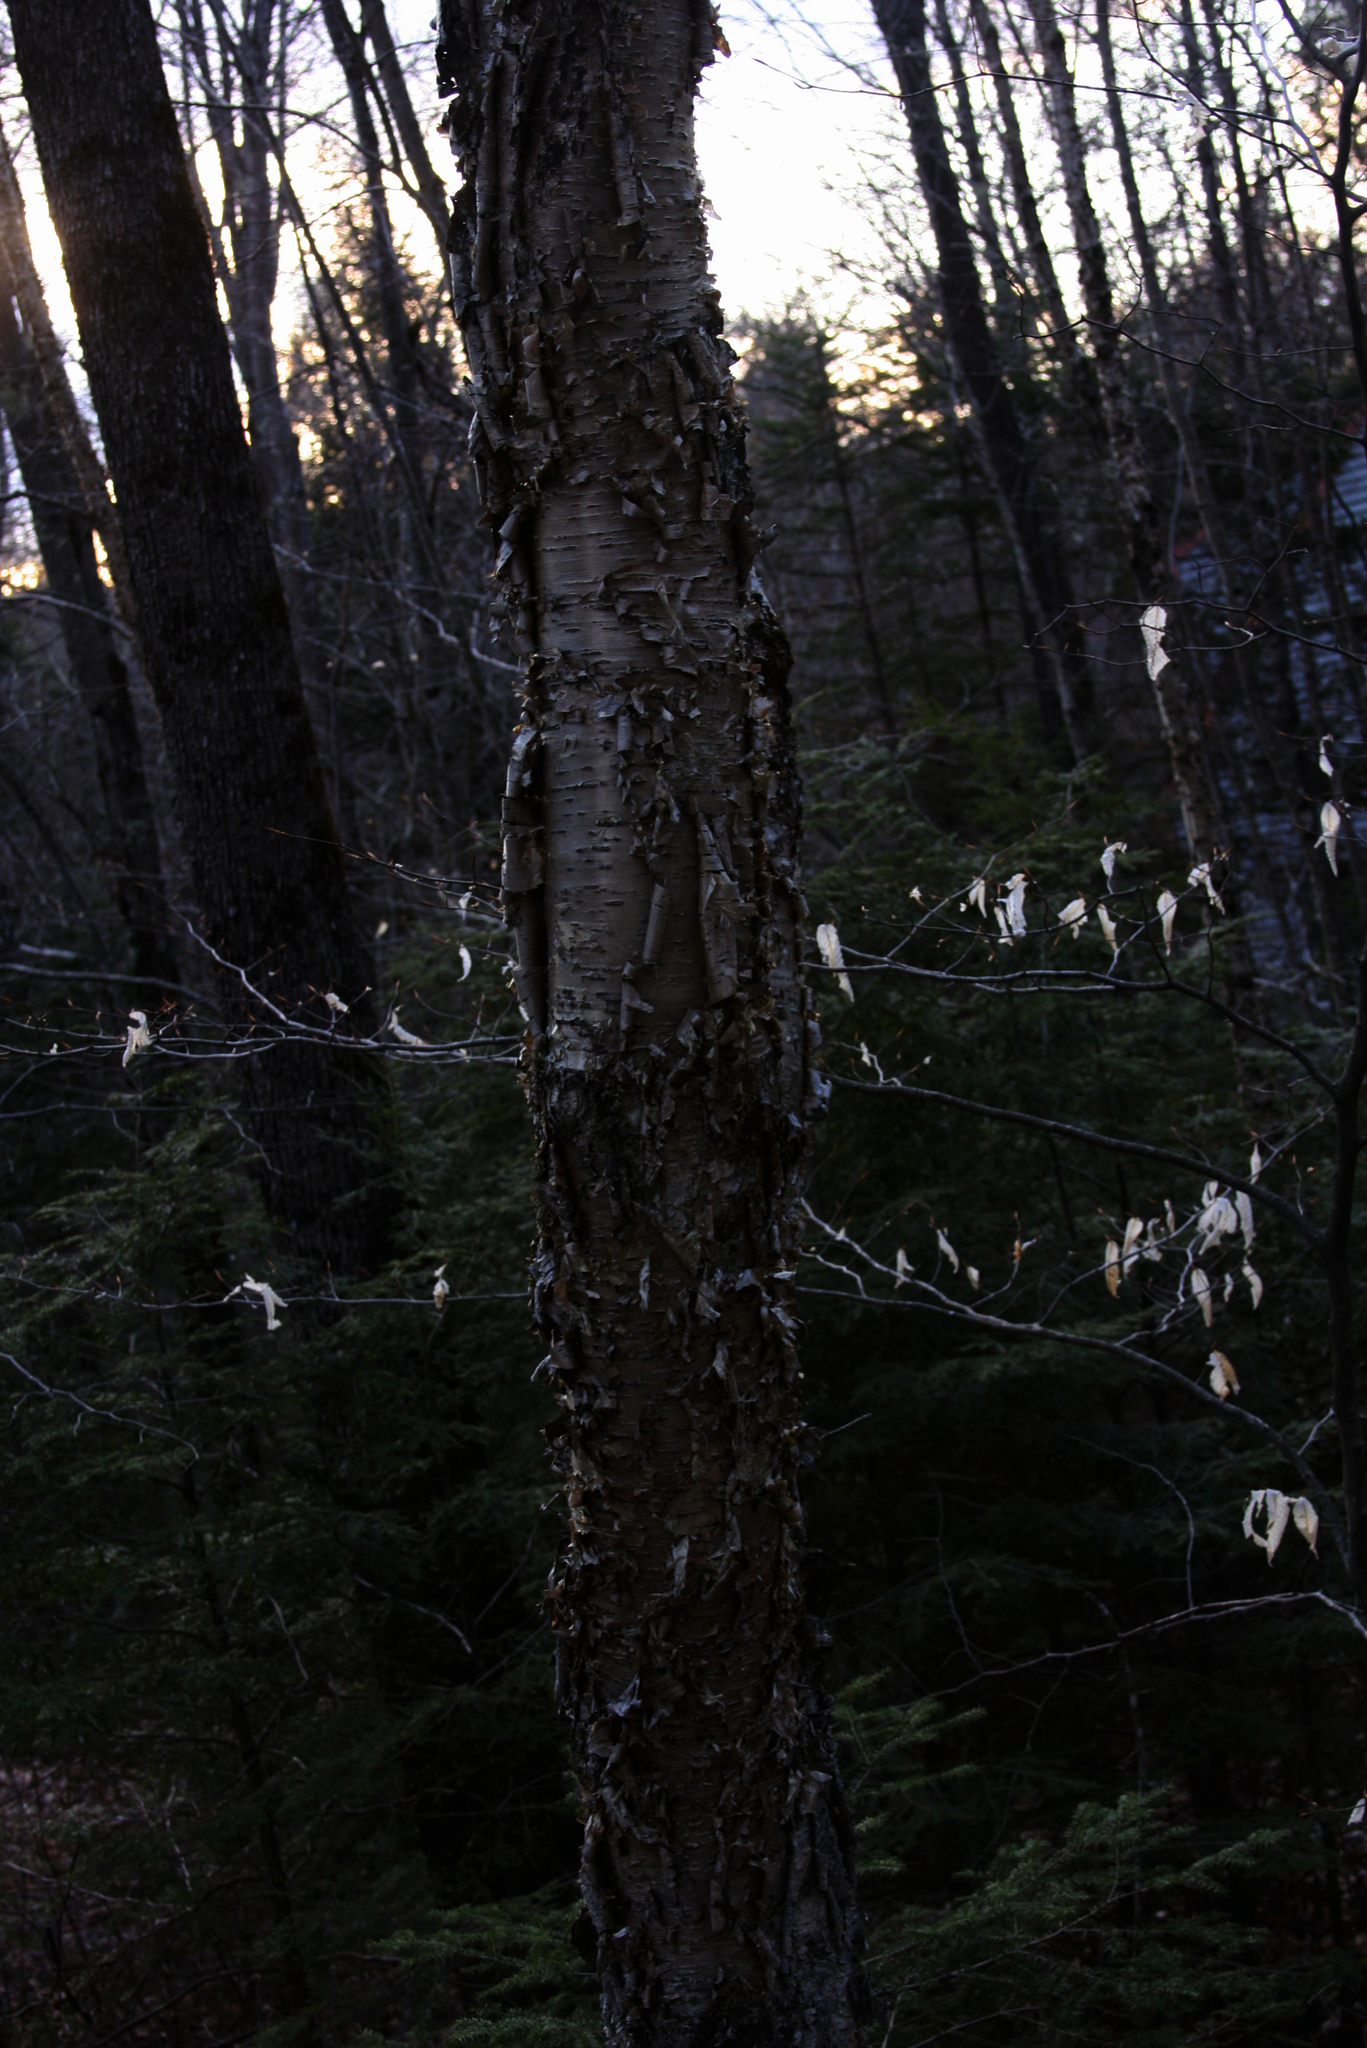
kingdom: Plantae
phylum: Tracheophyta
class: Magnoliopsida
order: Fagales
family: Betulaceae
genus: Betula
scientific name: Betula alleghaniensis
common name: Yellow birch
